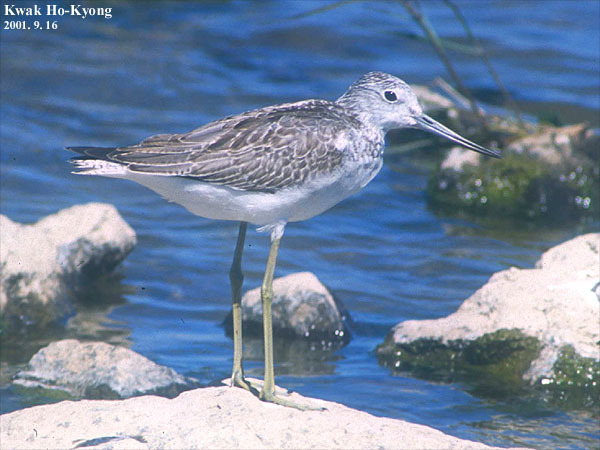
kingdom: Animalia
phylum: Chordata
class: Aves
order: Charadriiformes
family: Scolopacidae
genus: Tringa
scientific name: Tringa nebularia
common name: Common greenshank
